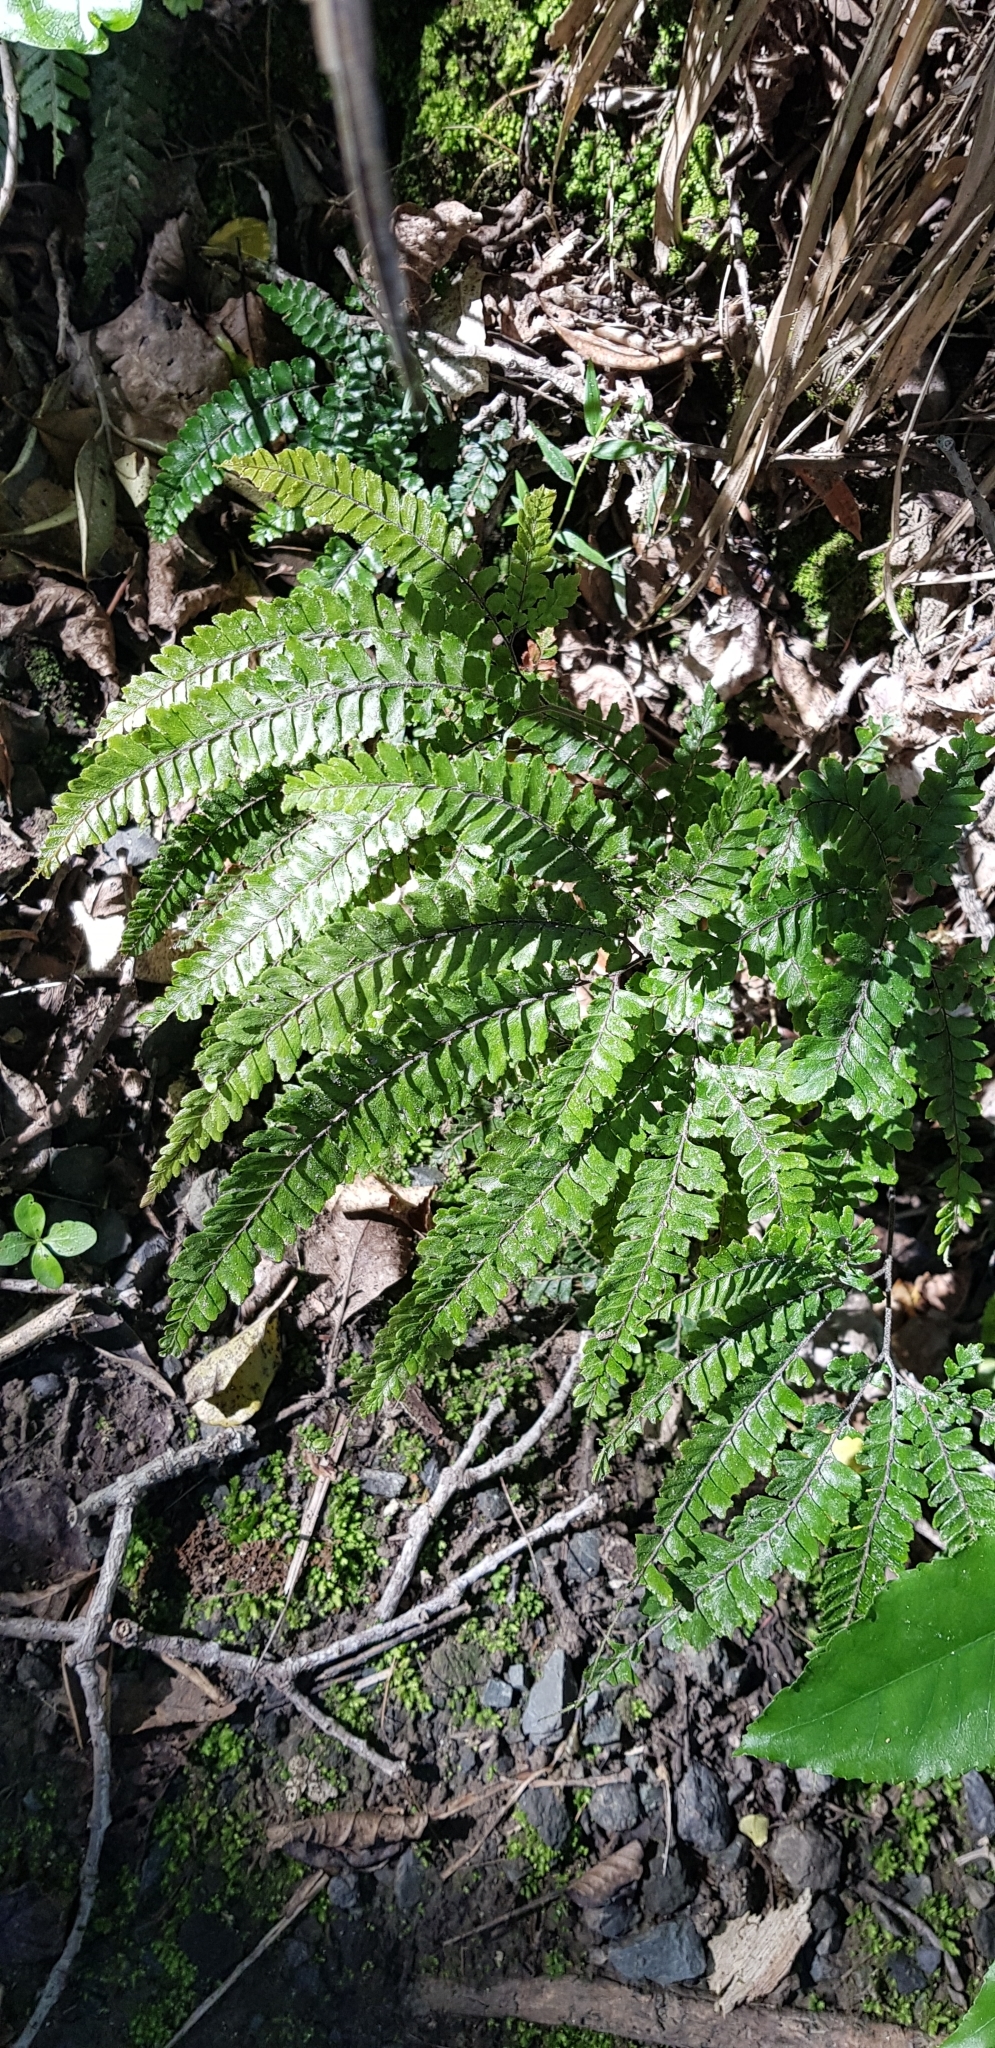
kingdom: Plantae
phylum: Tracheophyta
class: Polypodiopsida
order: Polypodiales
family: Pteridaceae
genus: Adiantum
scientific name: Adiantum hispidulum
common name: Rough maidenhair
